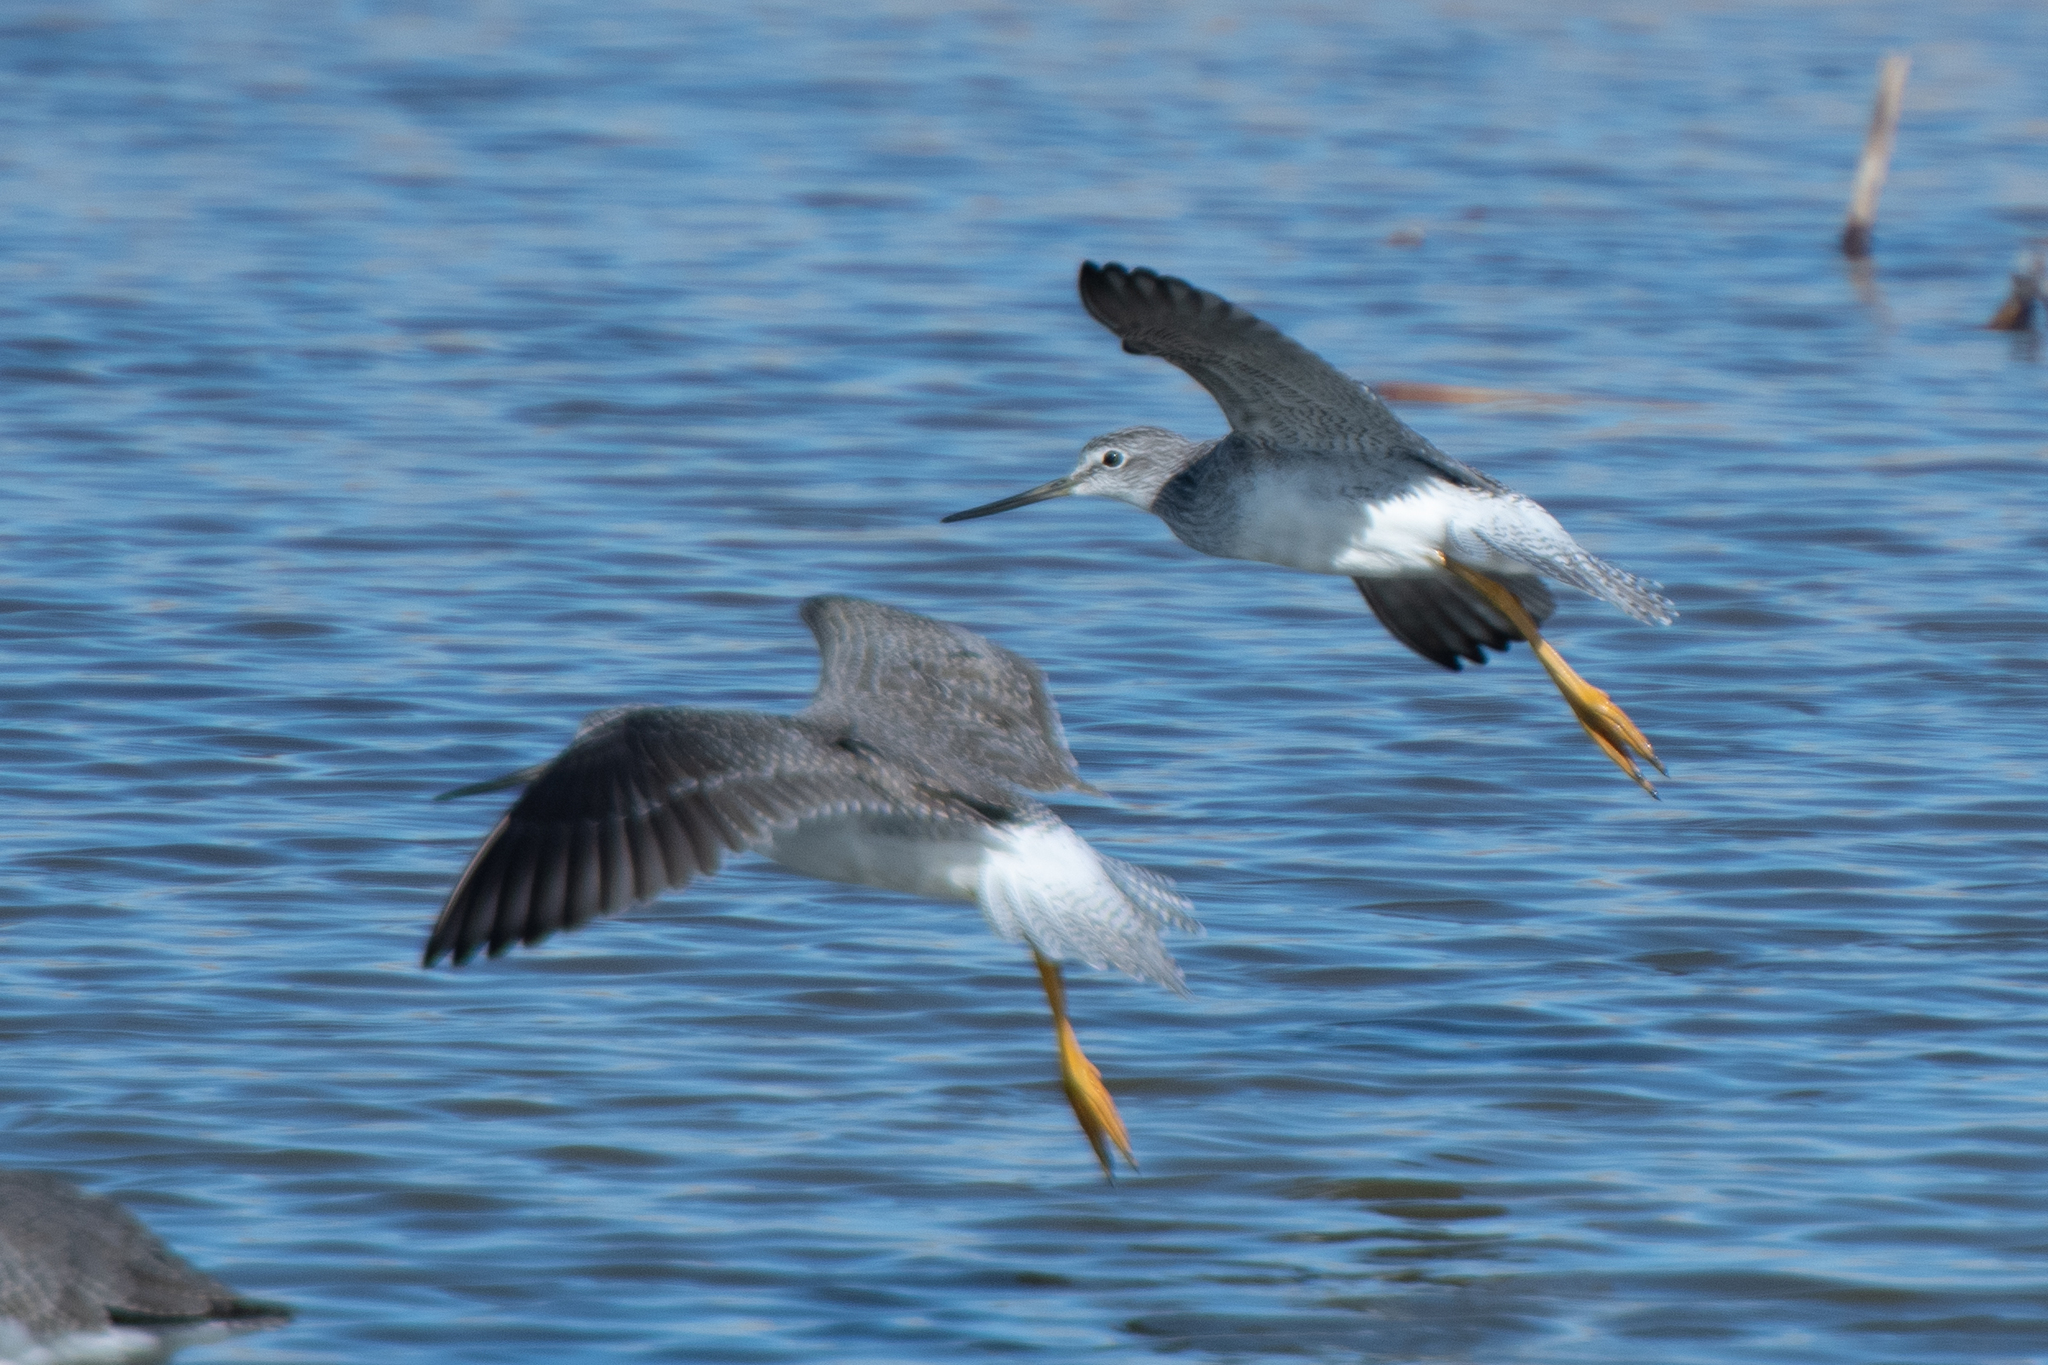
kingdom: Animalia
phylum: Chordata
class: Aves
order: Charadriiformes
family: Scolopacidae
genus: Tringa
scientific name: Tringa melanoleuca
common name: Greater yellowlegs
